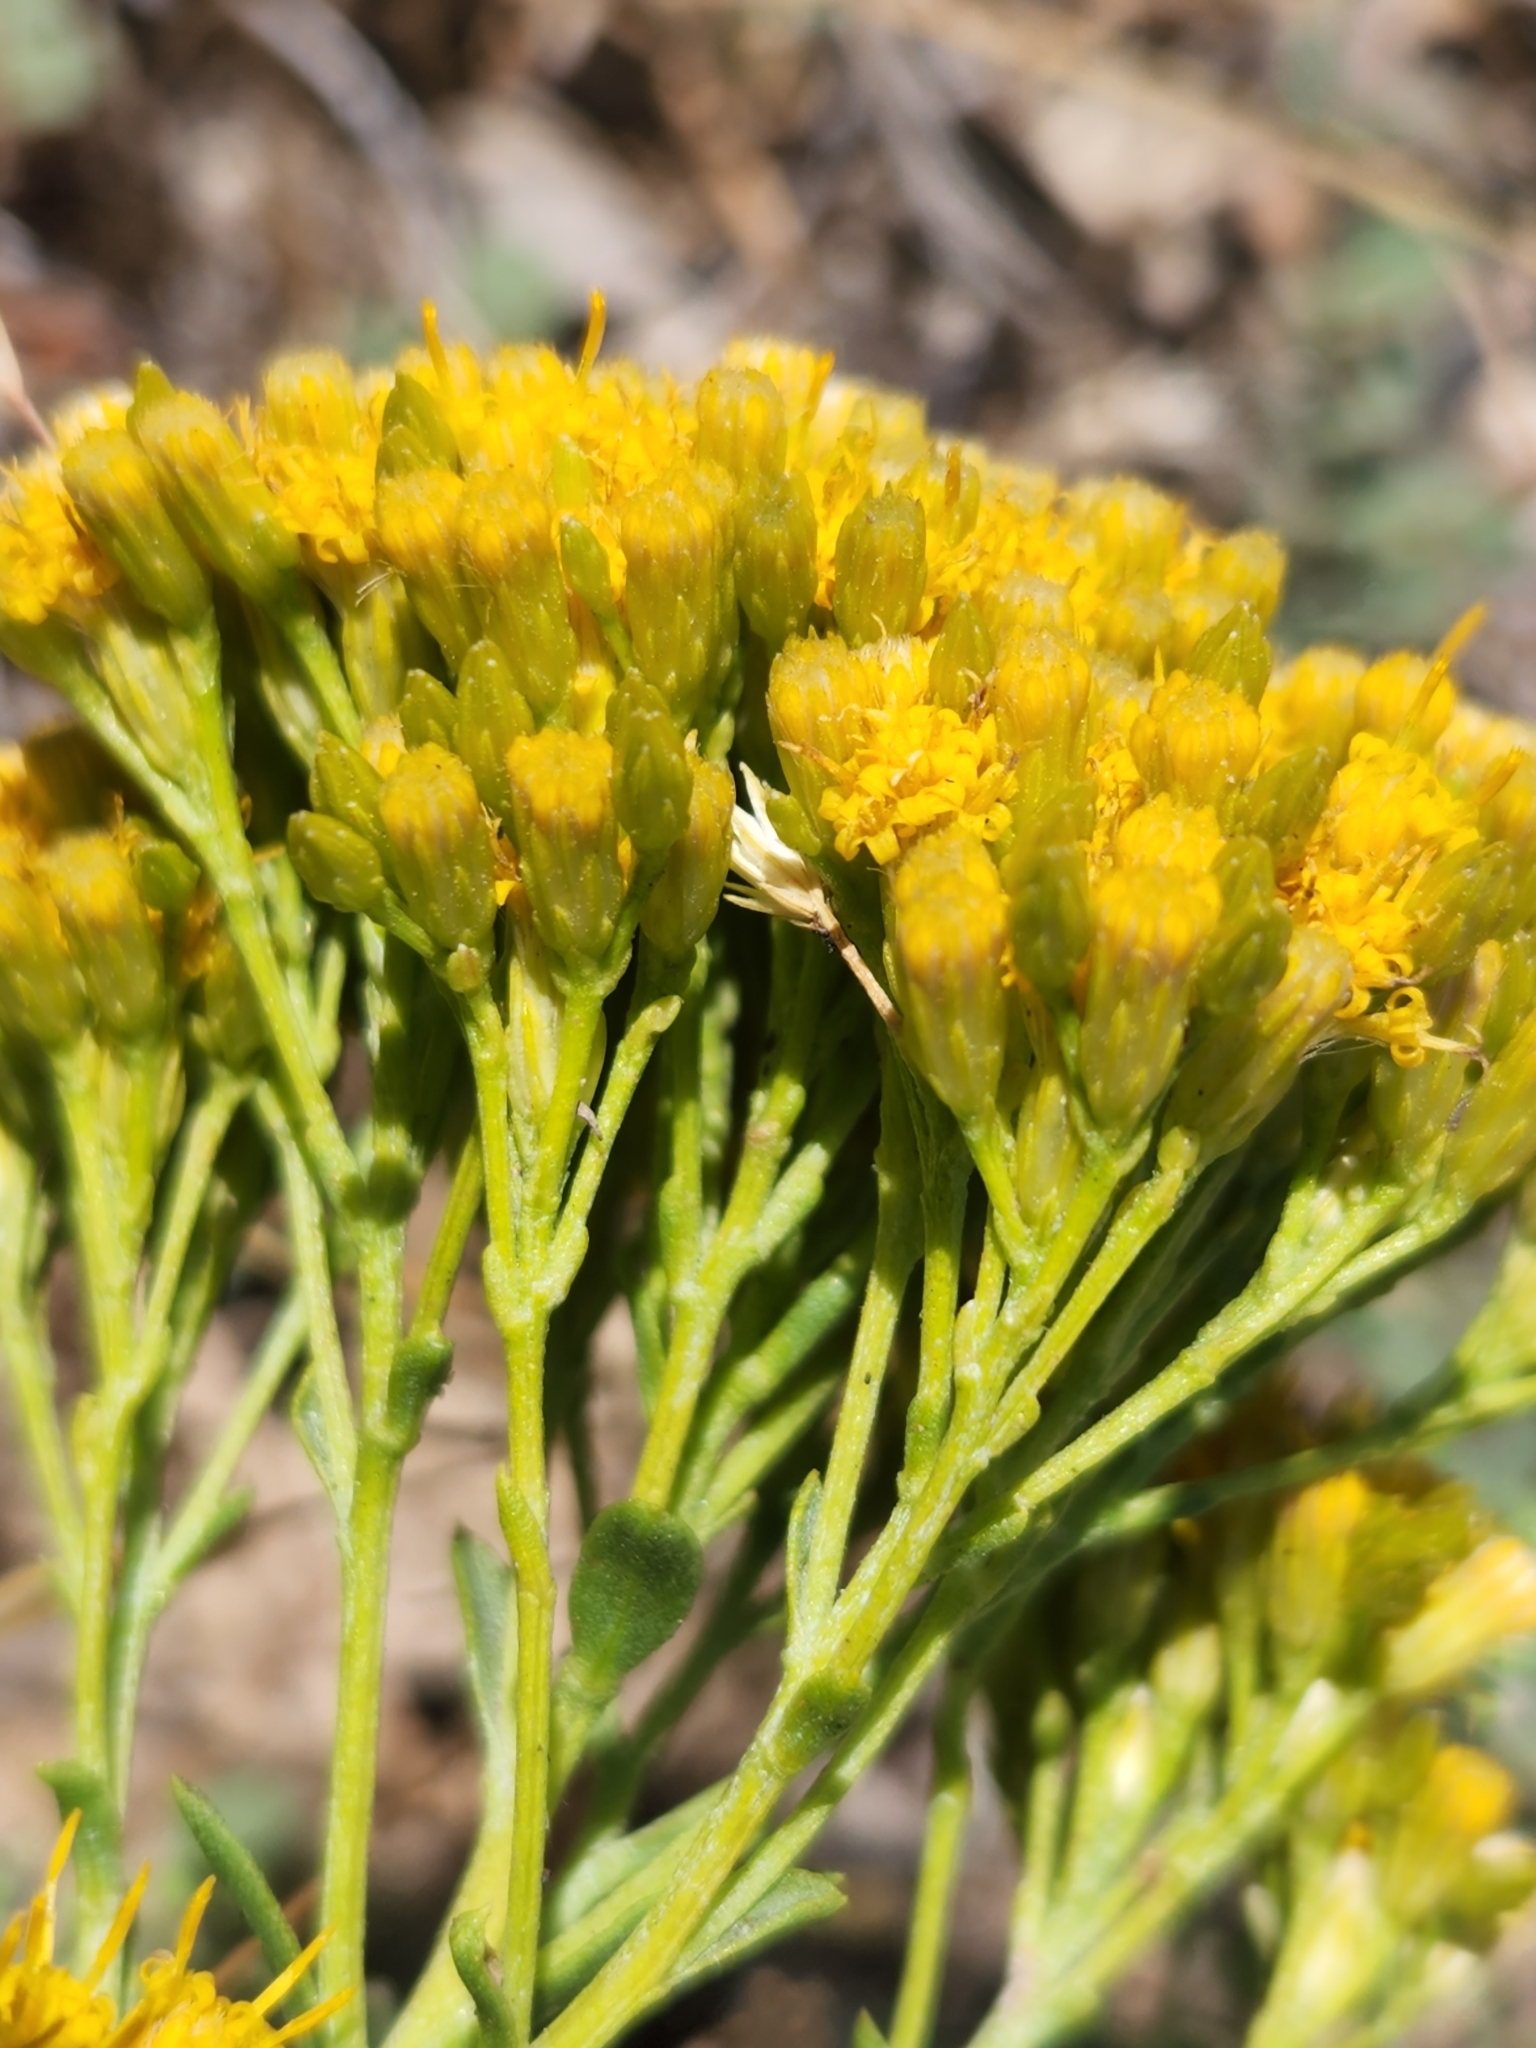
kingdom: Plantae
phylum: Tracheophyta
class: Magnoliopsida
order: Asterales
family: Asteraceae
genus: Ericameria
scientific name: Ericameria parishii
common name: Parish's goldenbush
